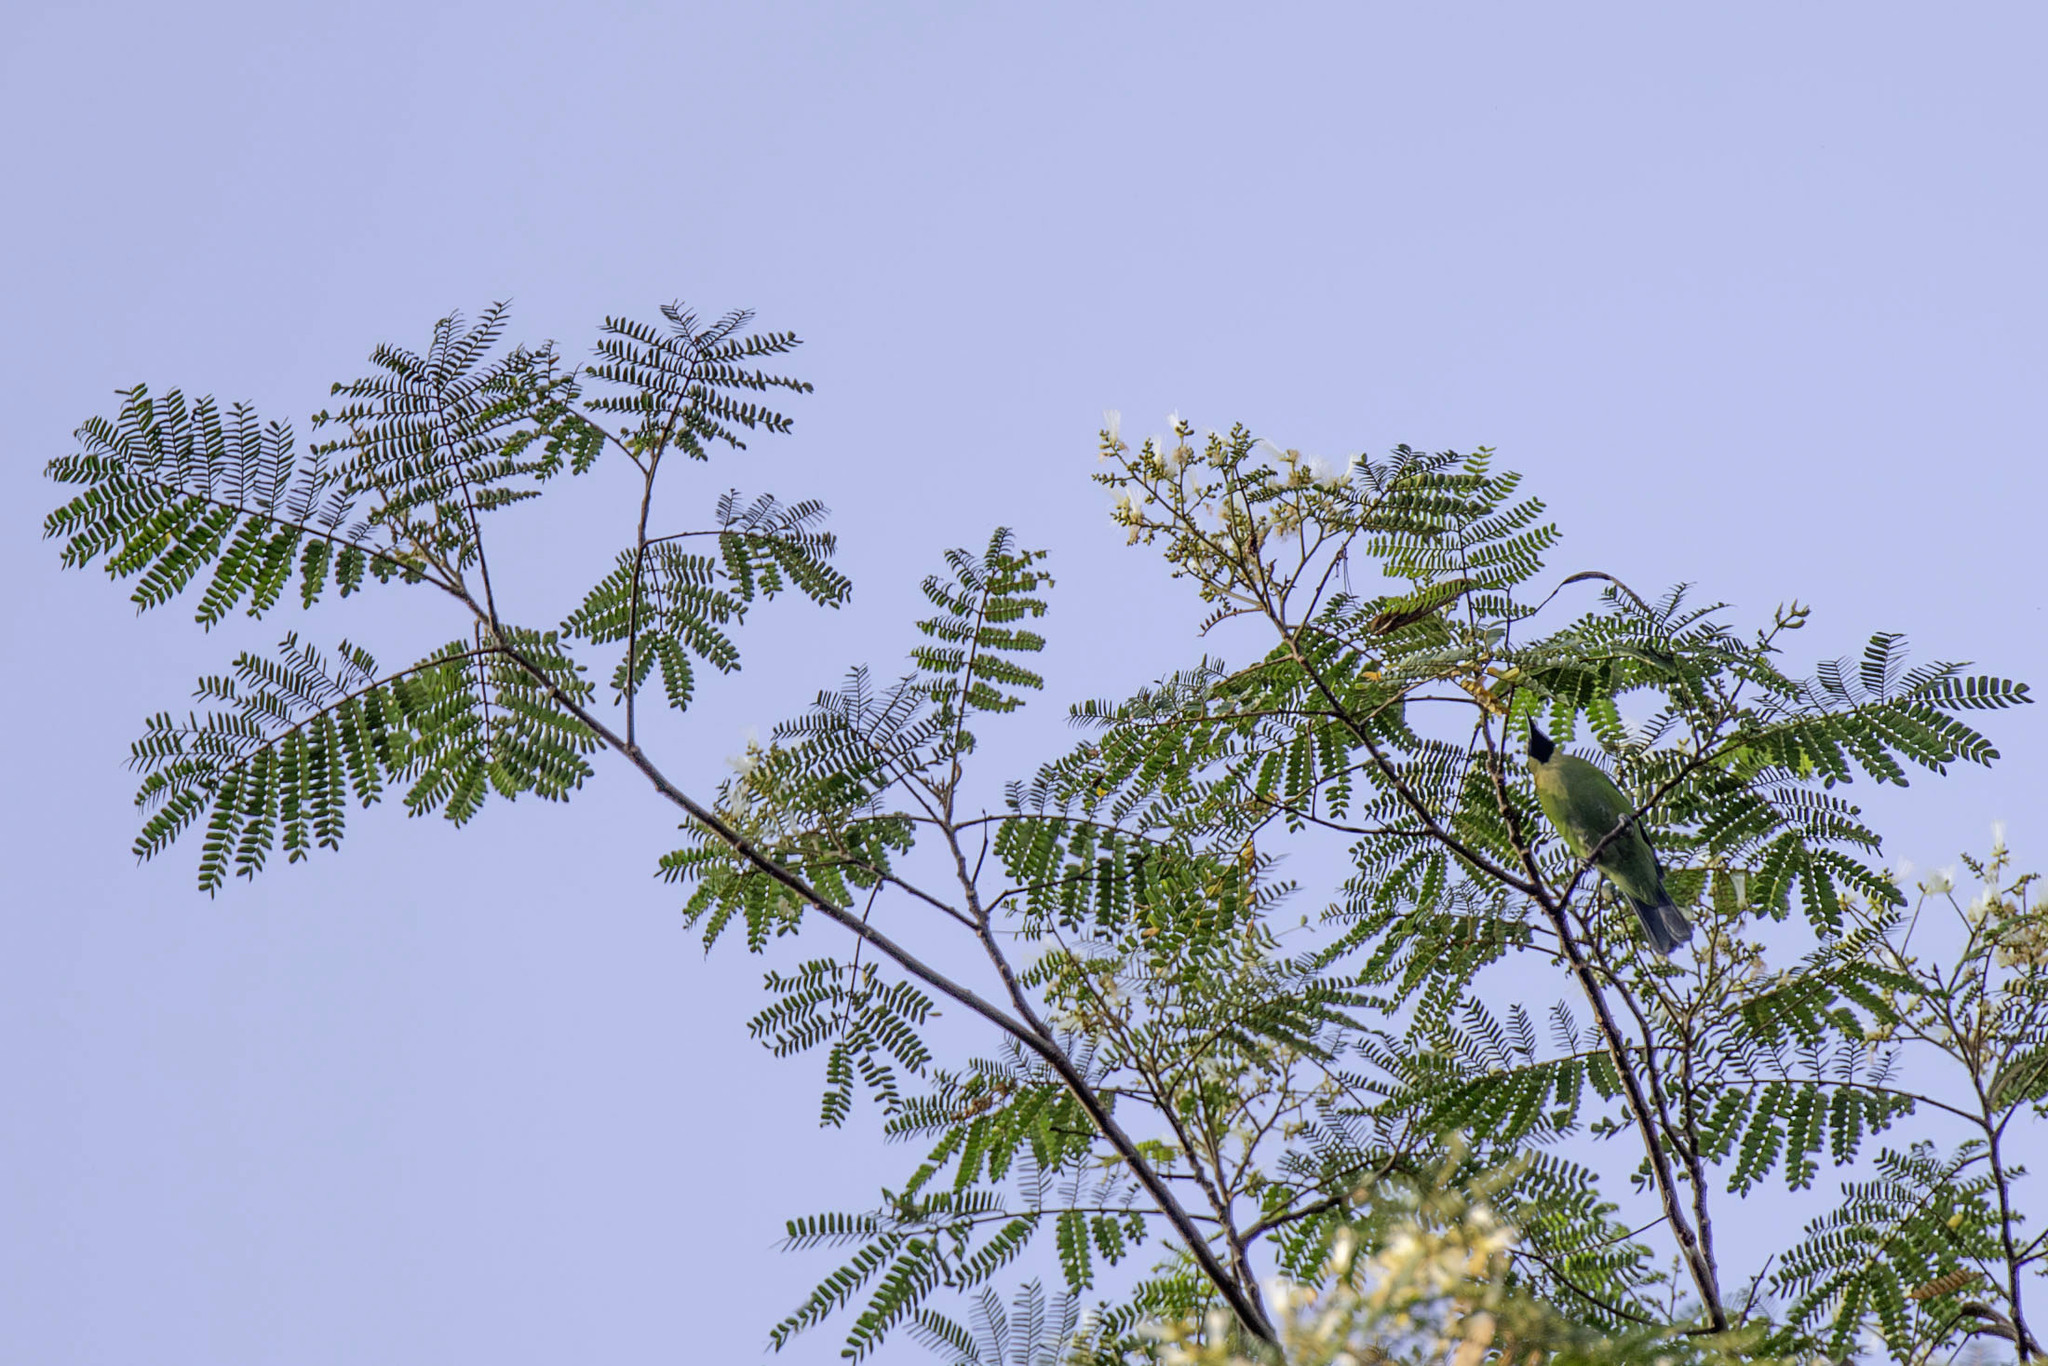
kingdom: Plantae
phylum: Tracheophyta
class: Magnoliopsida
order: Fabales
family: Fabaceae
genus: Falcataria
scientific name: Falcataria falcata
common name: Moluccan albizia
